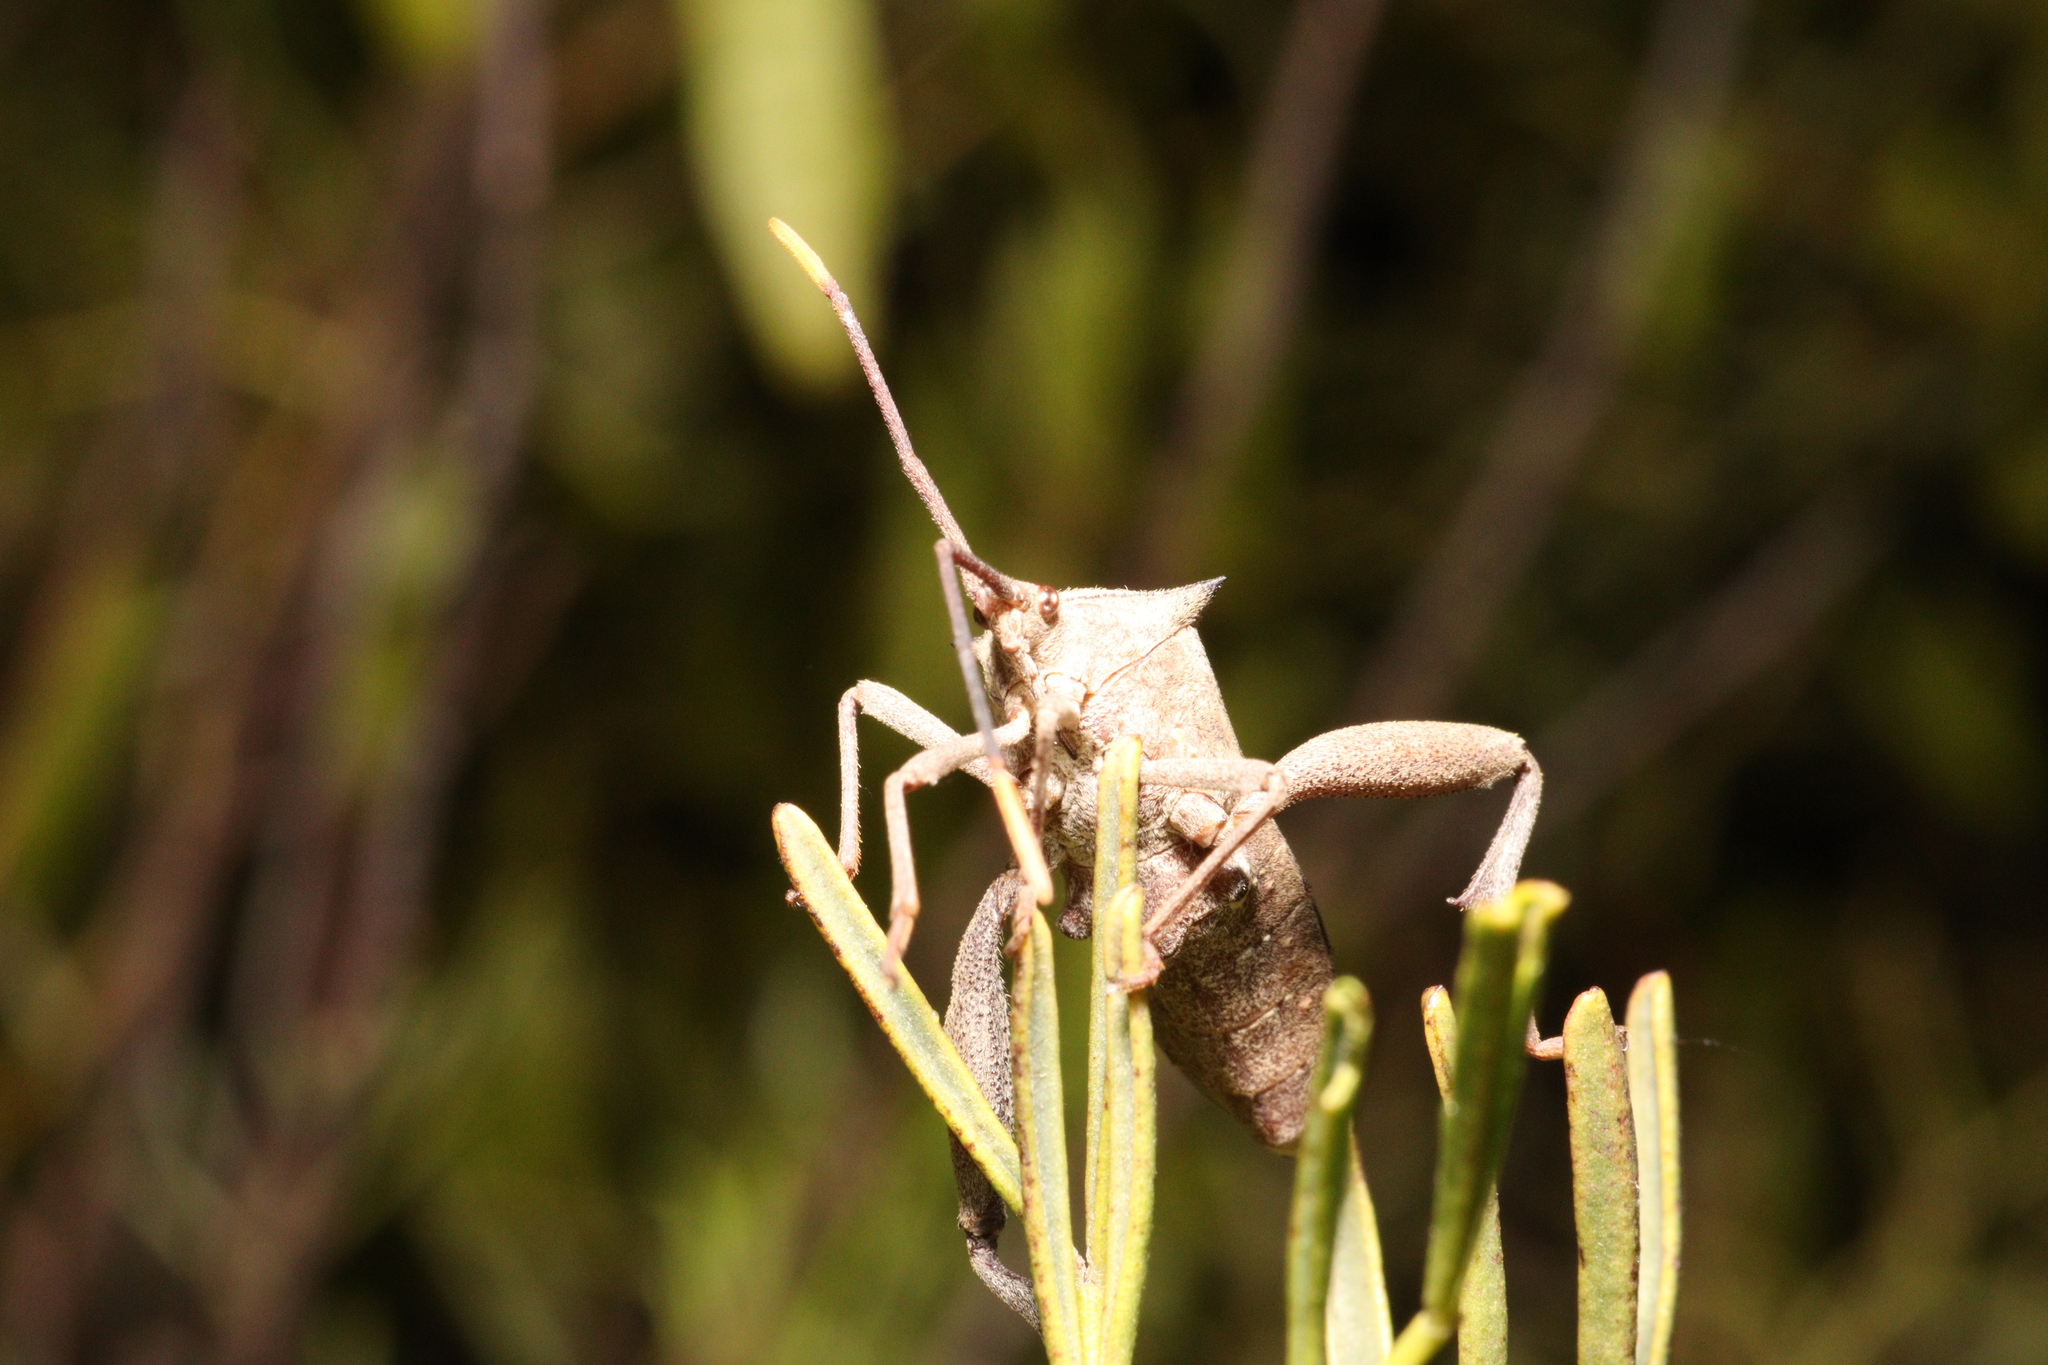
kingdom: Animalia
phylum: Arthropoda
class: Insecta
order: Hemiptera
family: Coreidae
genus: Mictis
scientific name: Mictis profana
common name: Crusader bug
